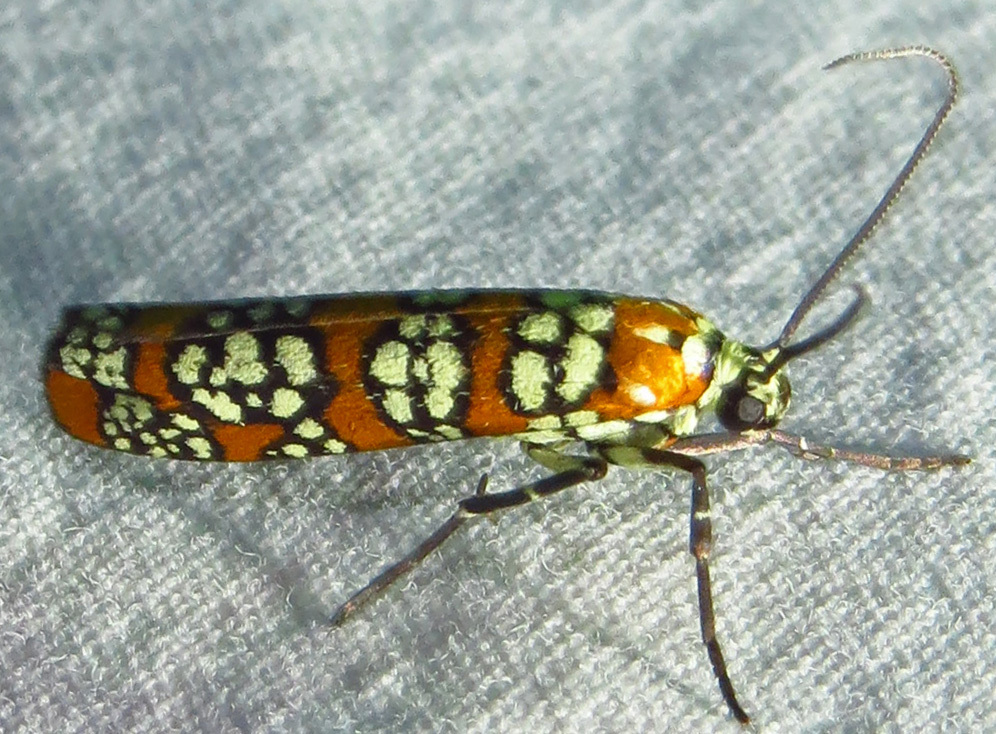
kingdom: Animalia
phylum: Arthropoda
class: Insecta
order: Lepidoptera
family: Attevidae
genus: Atteva
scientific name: Atteva punctella
